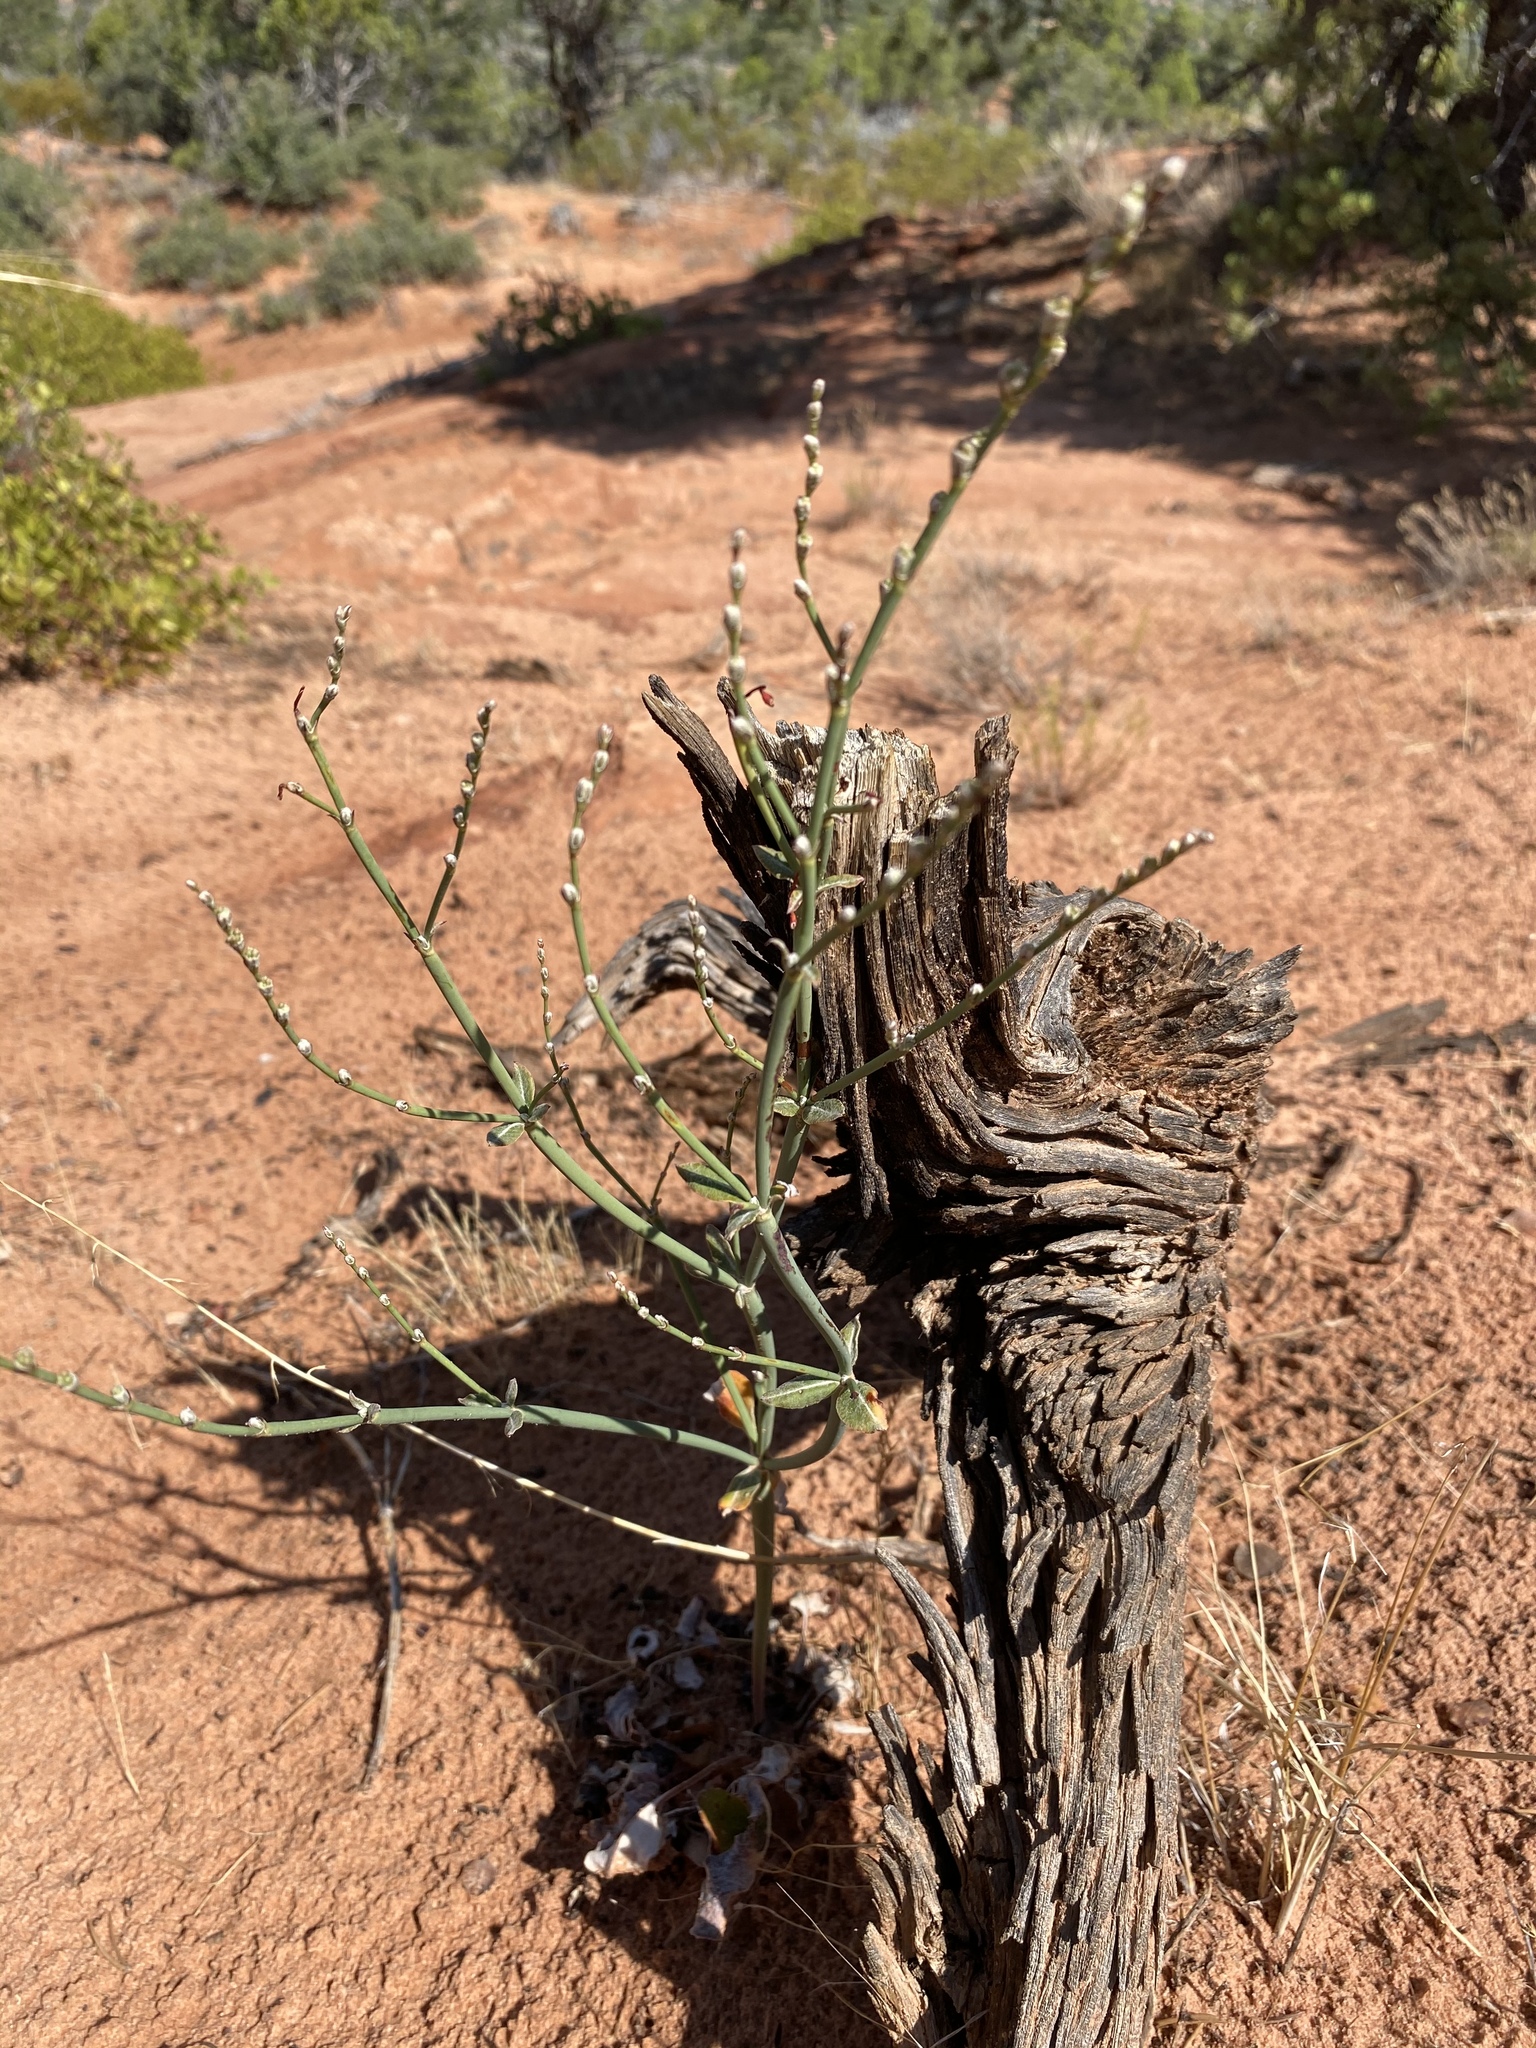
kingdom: Plantae
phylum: Tracheophyta
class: Magnoliopsida
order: Caryophyllales
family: Polygonaceae
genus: Eriogonum
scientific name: Eriogonum zionis
